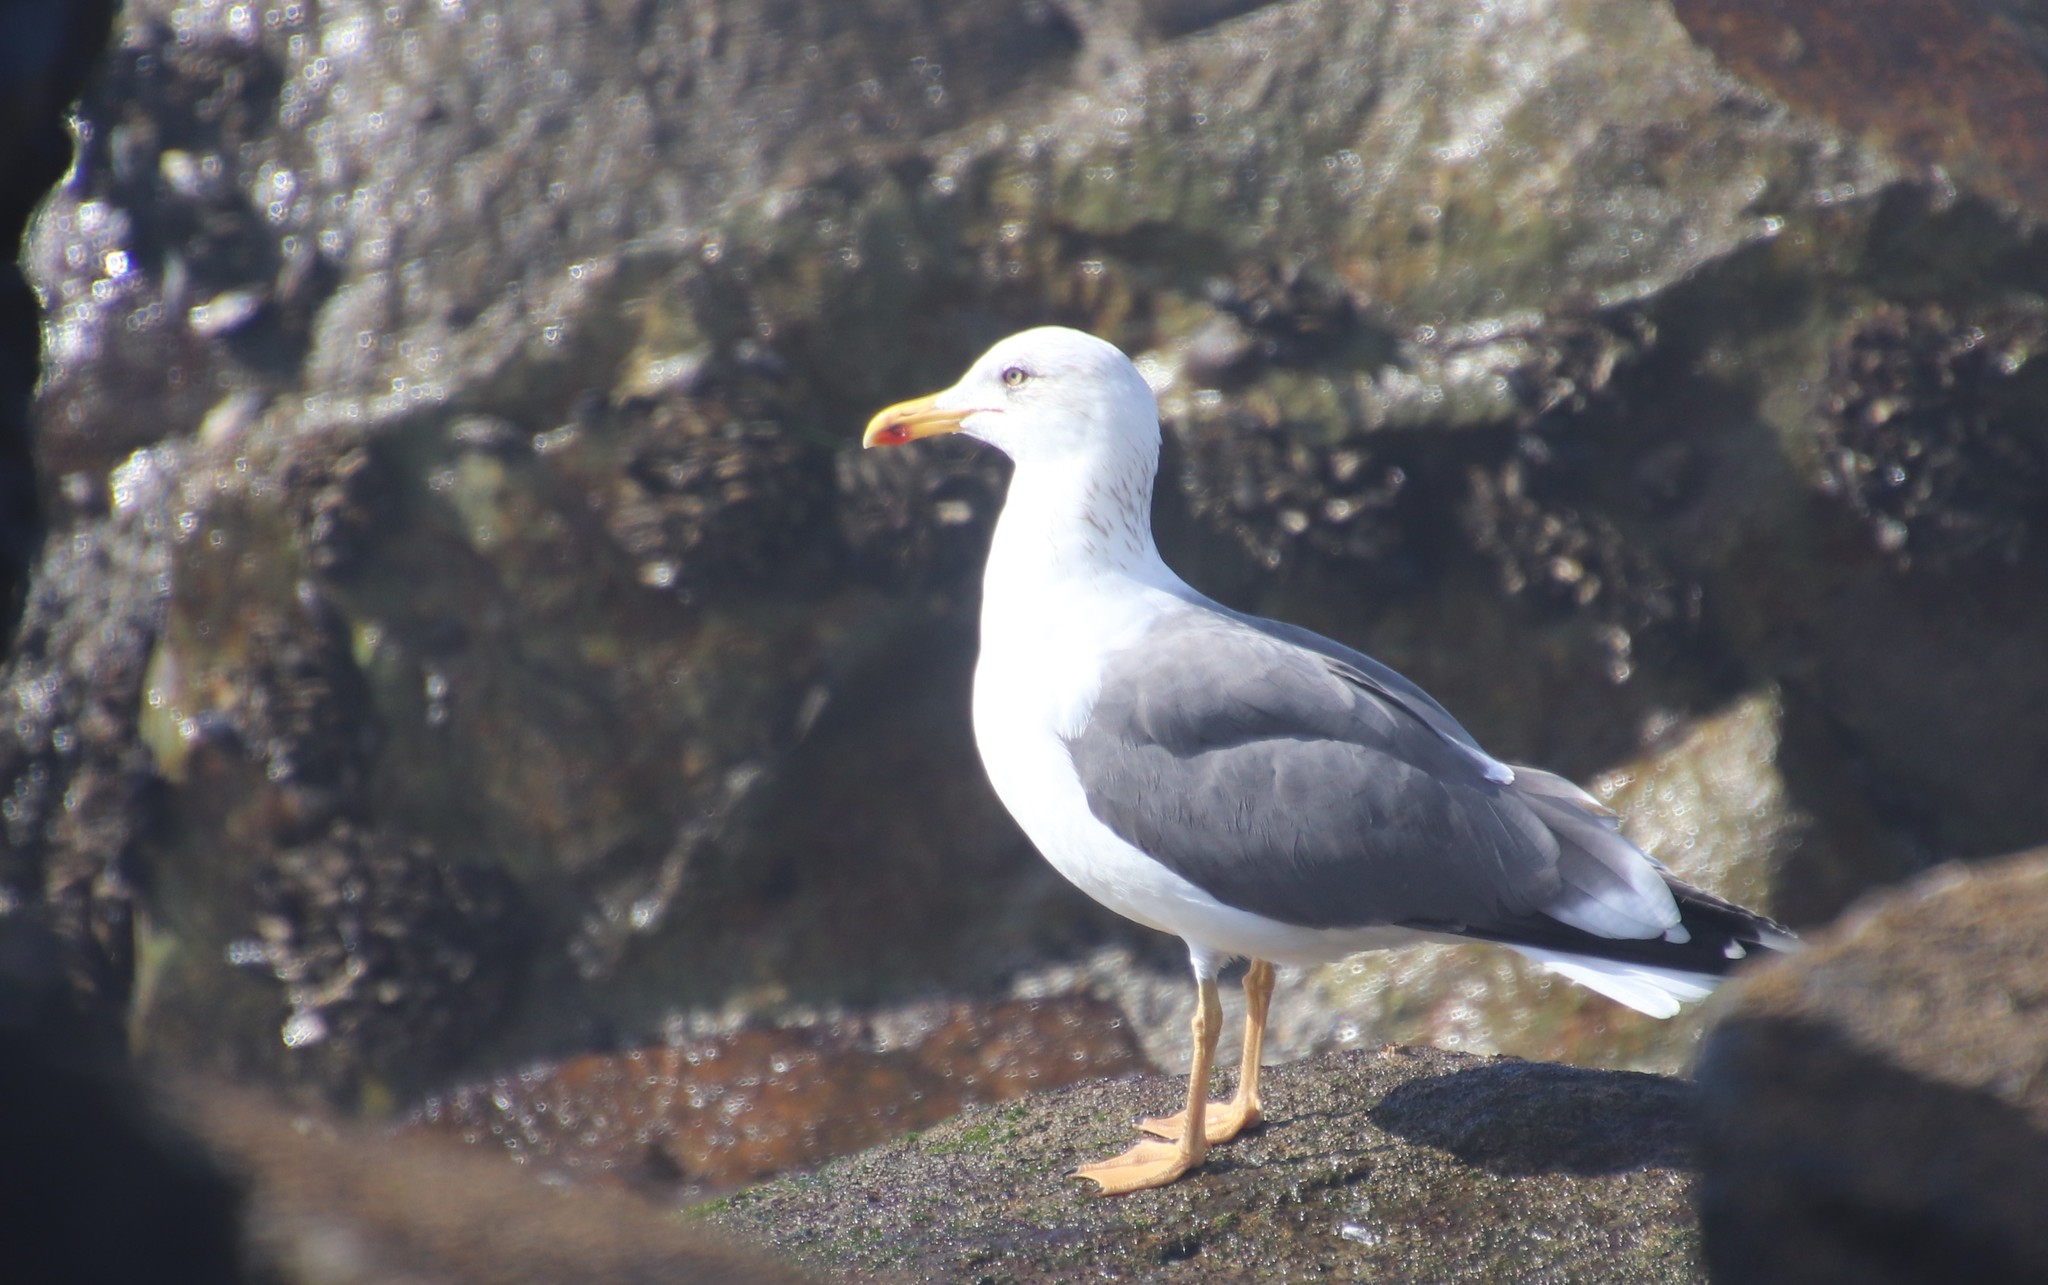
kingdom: Animalia
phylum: Chordata
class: Aves
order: Charadriiformes
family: Laridae
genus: Larus
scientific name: Larus fuscus
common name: Lesser black-backed gull
